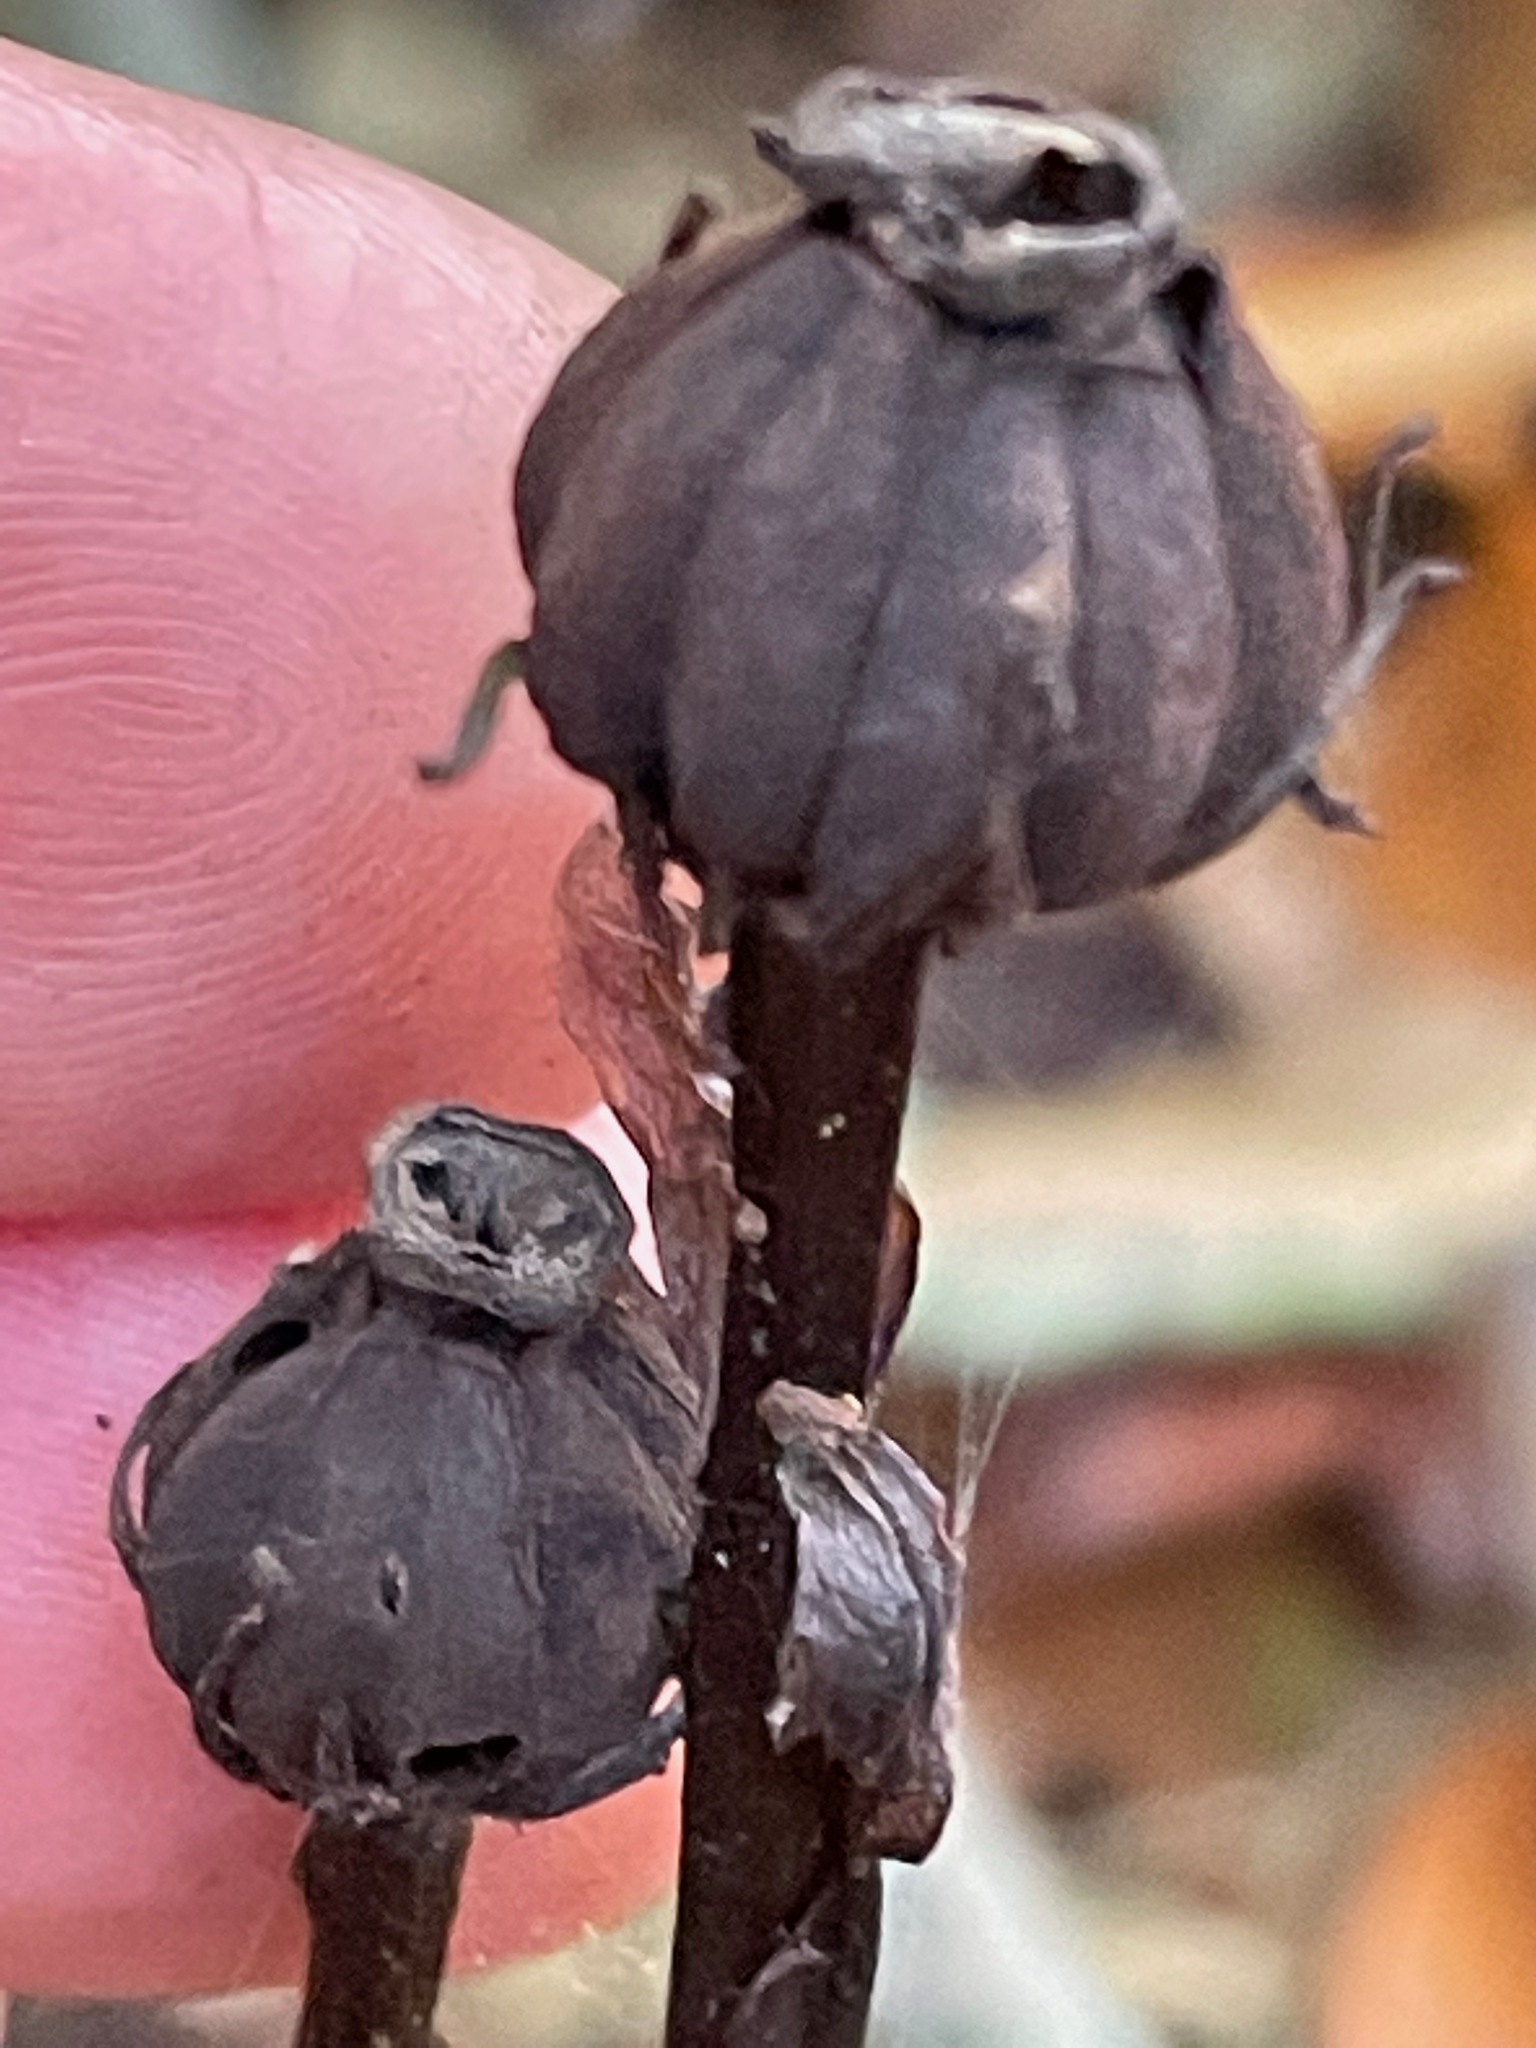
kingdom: Plantae
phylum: Tracheophyta
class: Magnoliopsida
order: Ericales
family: Ericaceae
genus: Monotropa
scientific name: Monotropa uniflora
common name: Convulsion root
